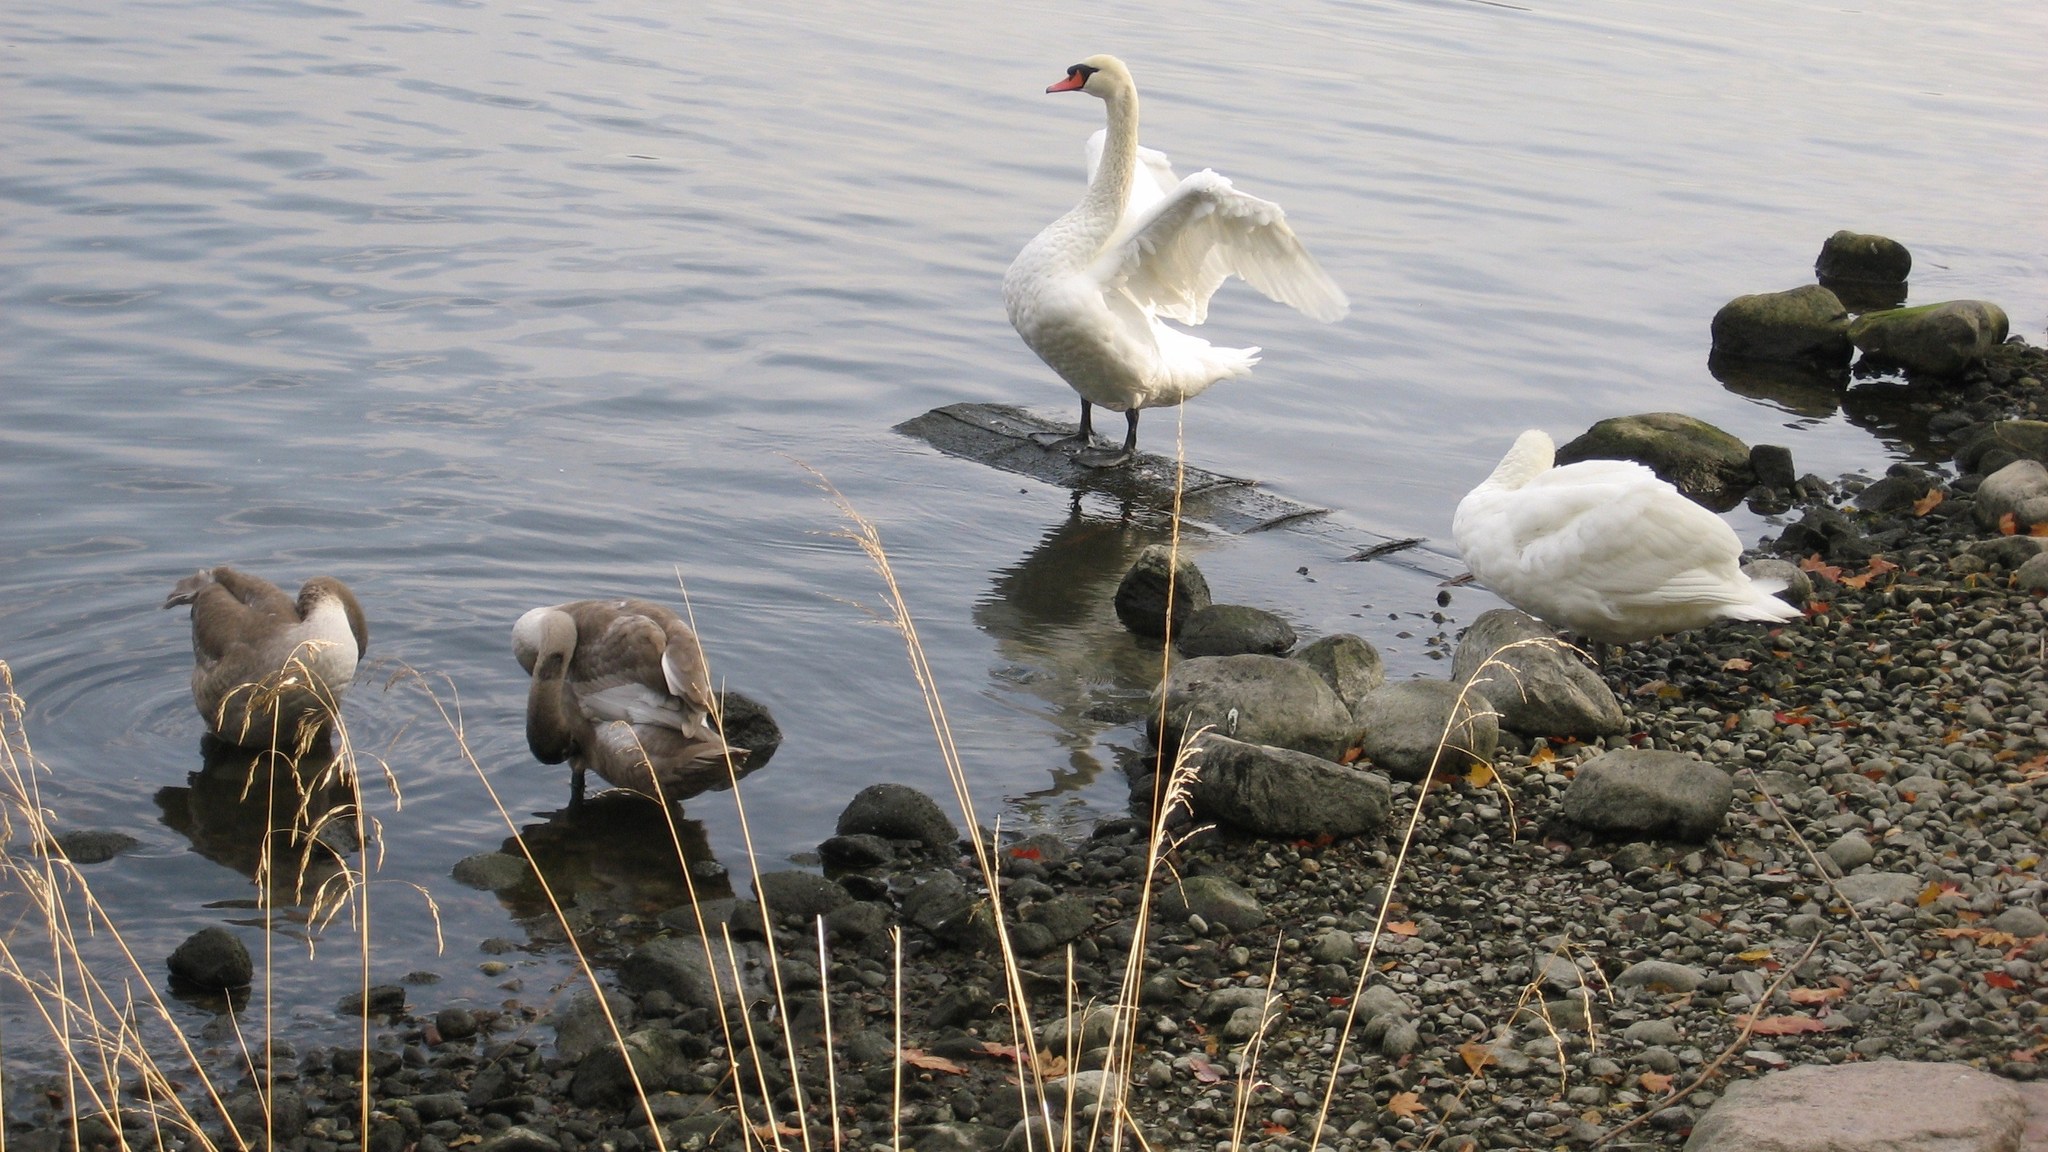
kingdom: Animalia
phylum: Chordata
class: Aves
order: Anseriformes
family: Anatidae
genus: Cygnus
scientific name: Cygnus olor
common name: Mute swan
